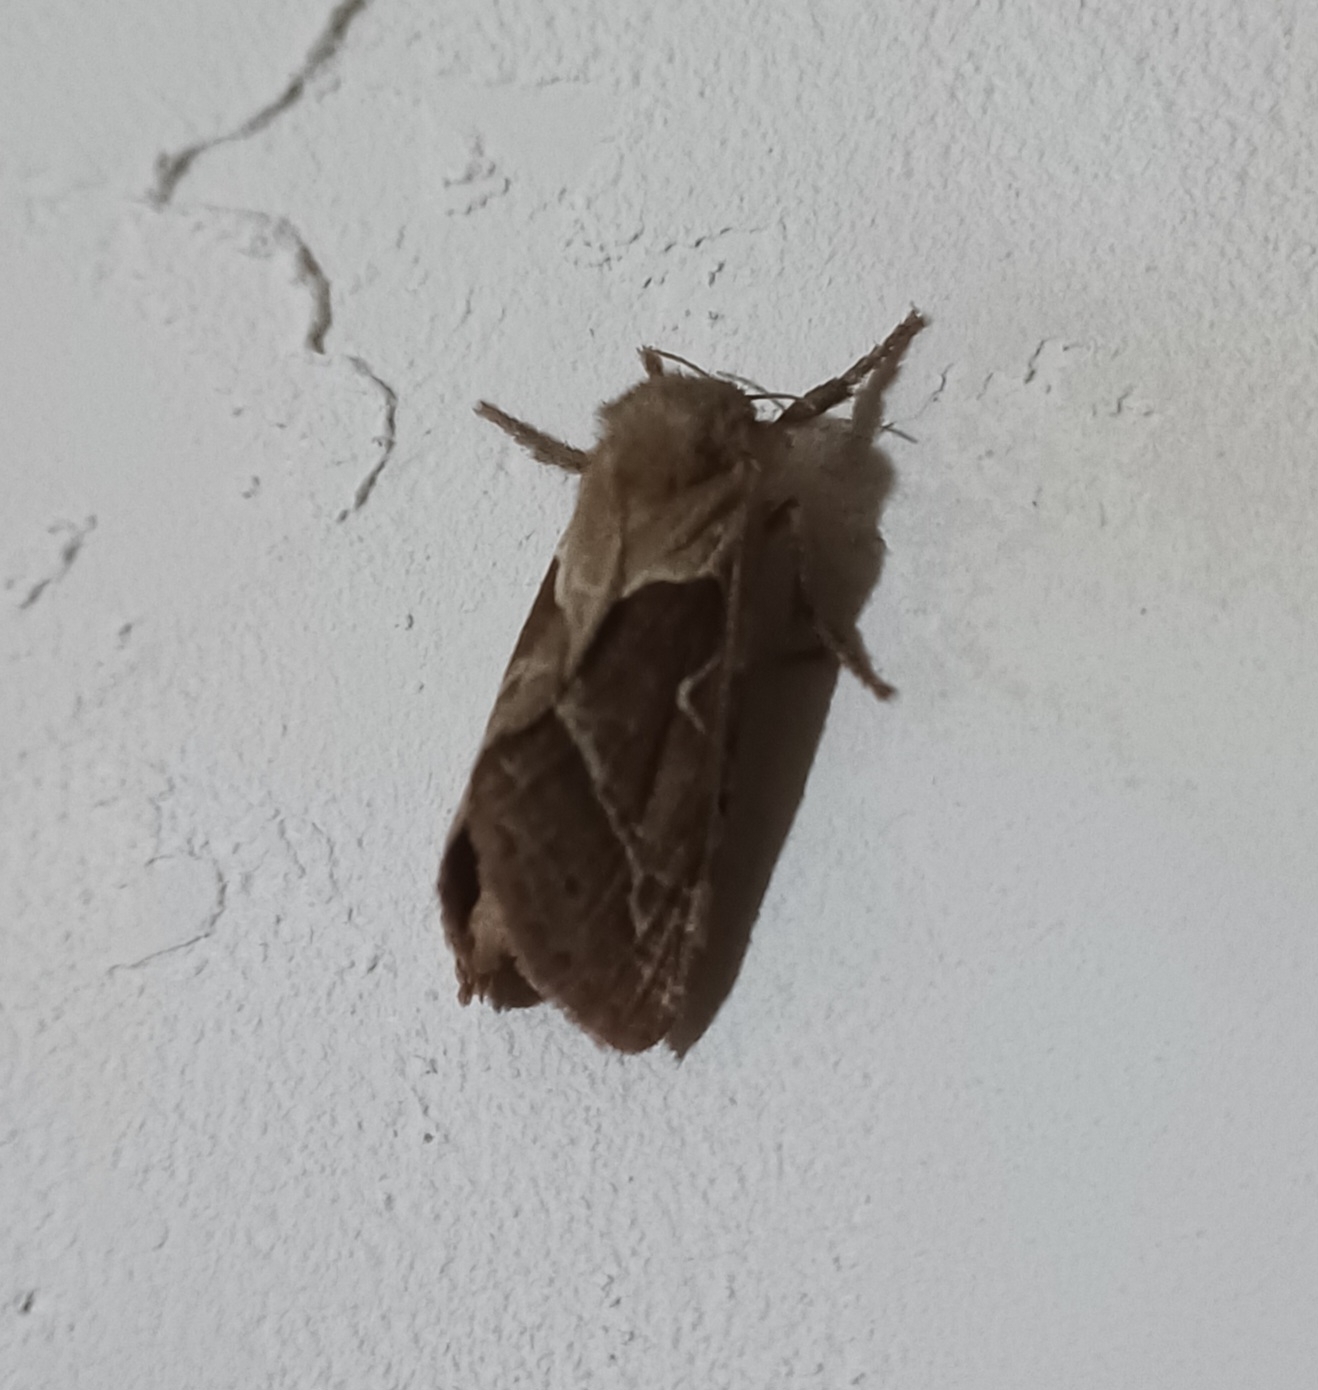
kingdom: Animalia
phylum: Arthropoda
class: Insecta
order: Lepidoptera
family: Hepialidae
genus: Triodia
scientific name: Triodia sylvina
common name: Orange swift
